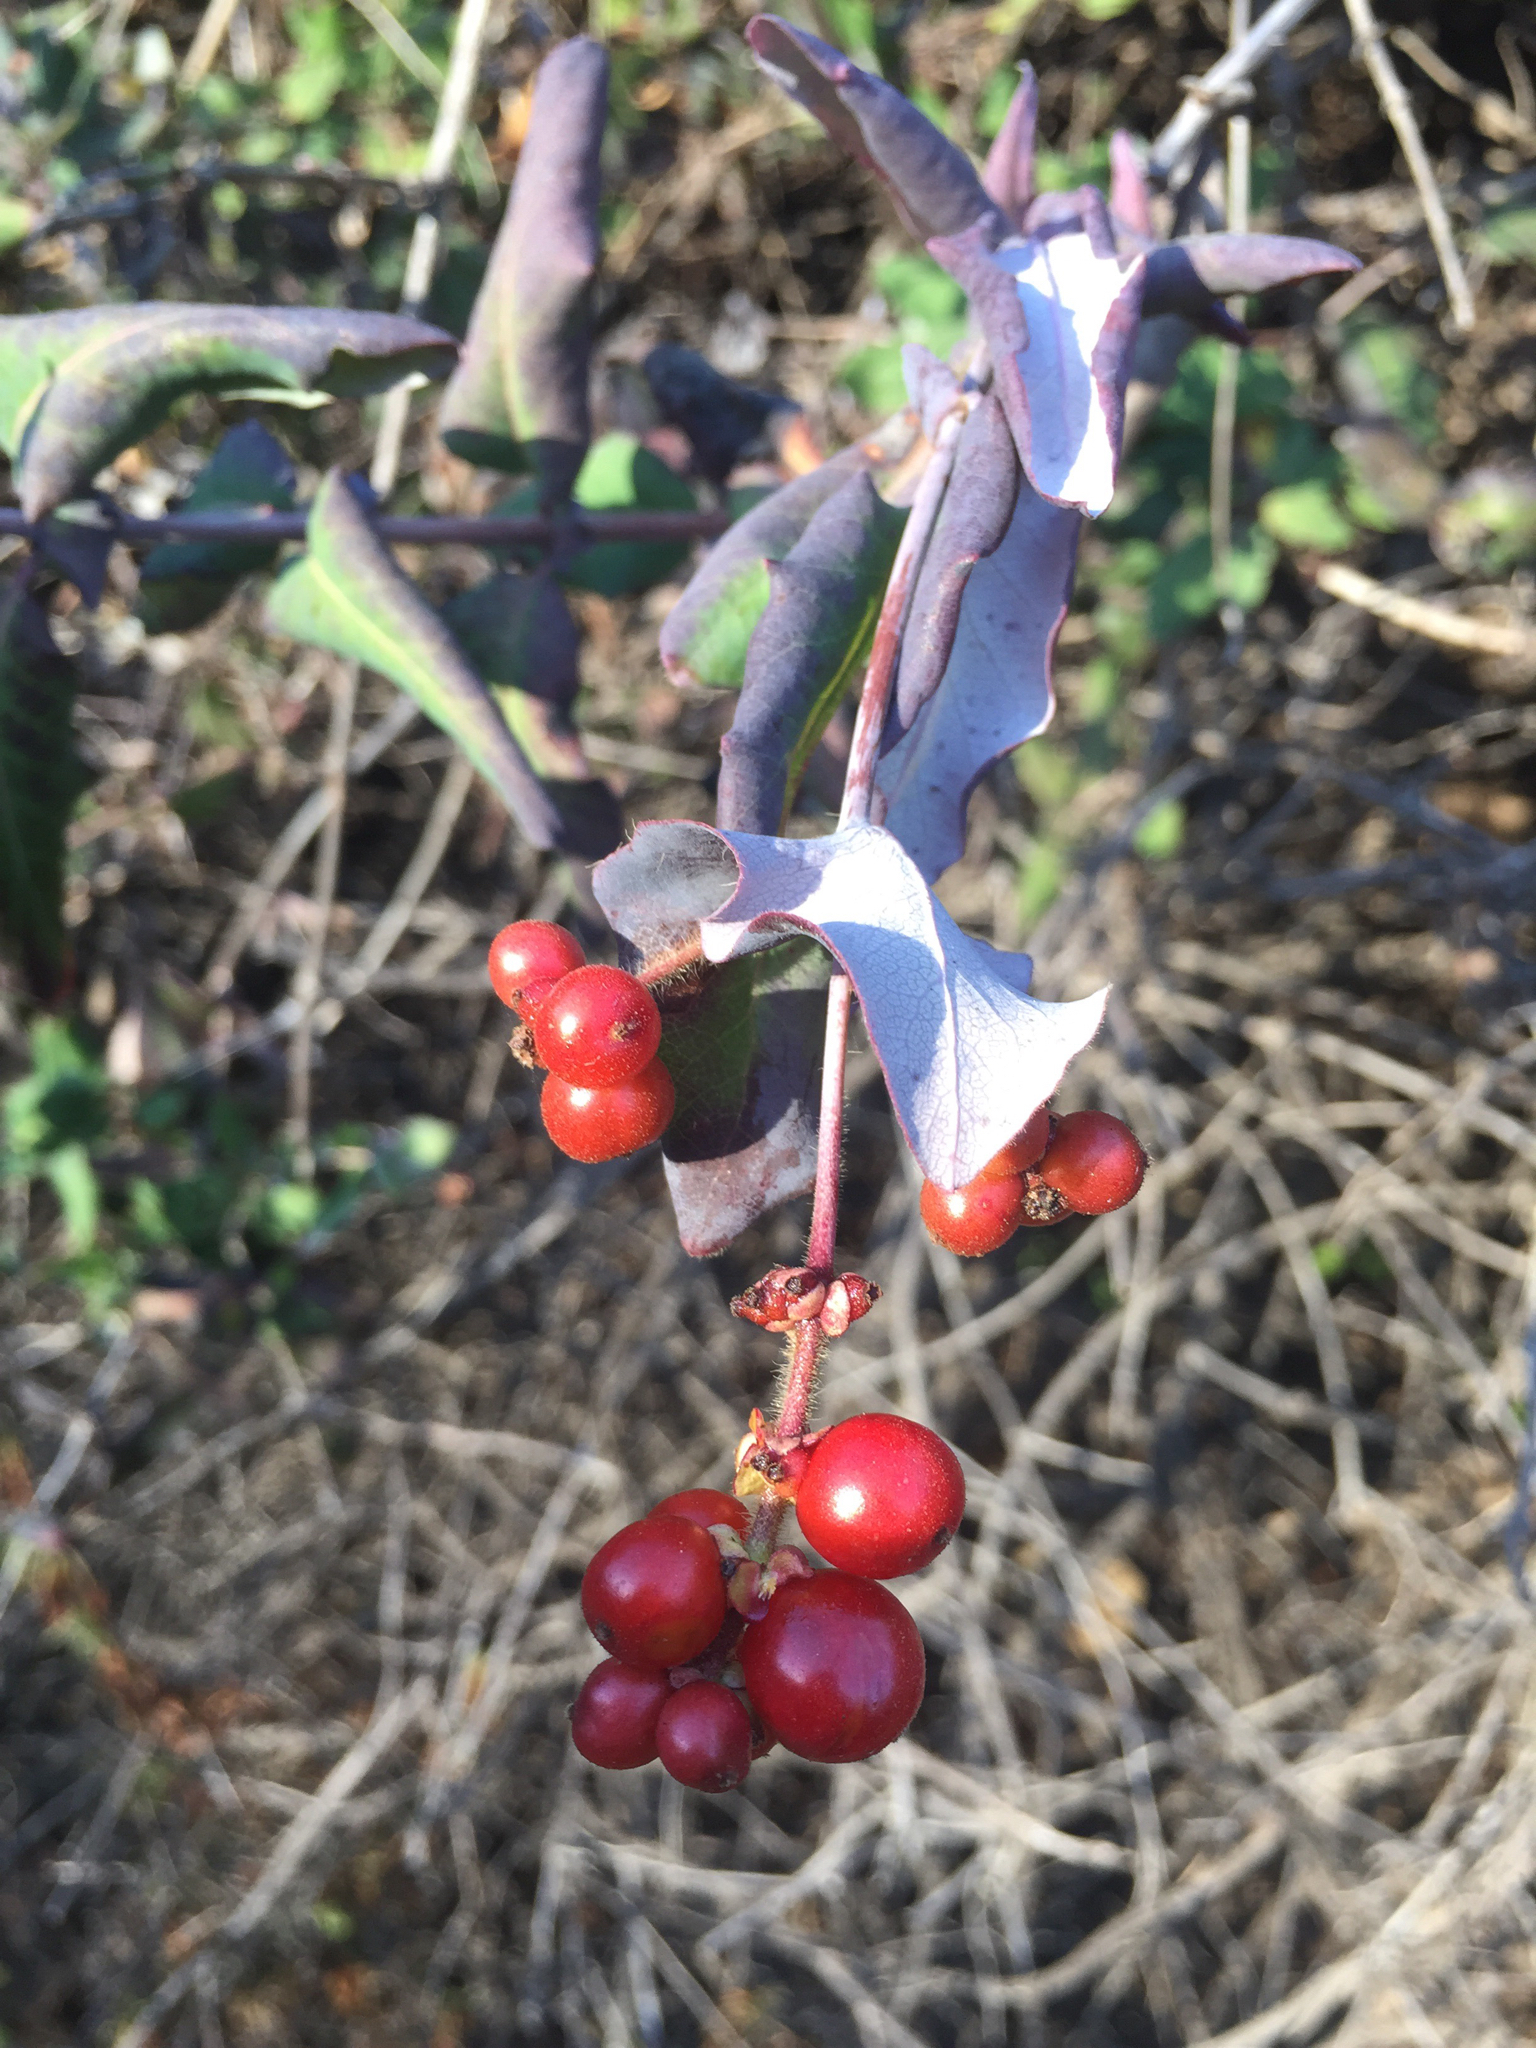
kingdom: Plantae
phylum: Tracheophyta
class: Magnoliopsida
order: Dipsacales
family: Caprifoliaceae
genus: Lonicera
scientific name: Lonicera hispidula
